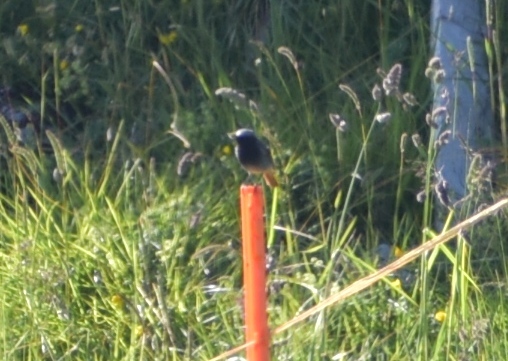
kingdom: Animalia
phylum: Chordata
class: Aves
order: Passeriformes
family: Muscicapidae
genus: Phoenicurus
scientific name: Phoenicurus ochruros
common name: Black redstart
